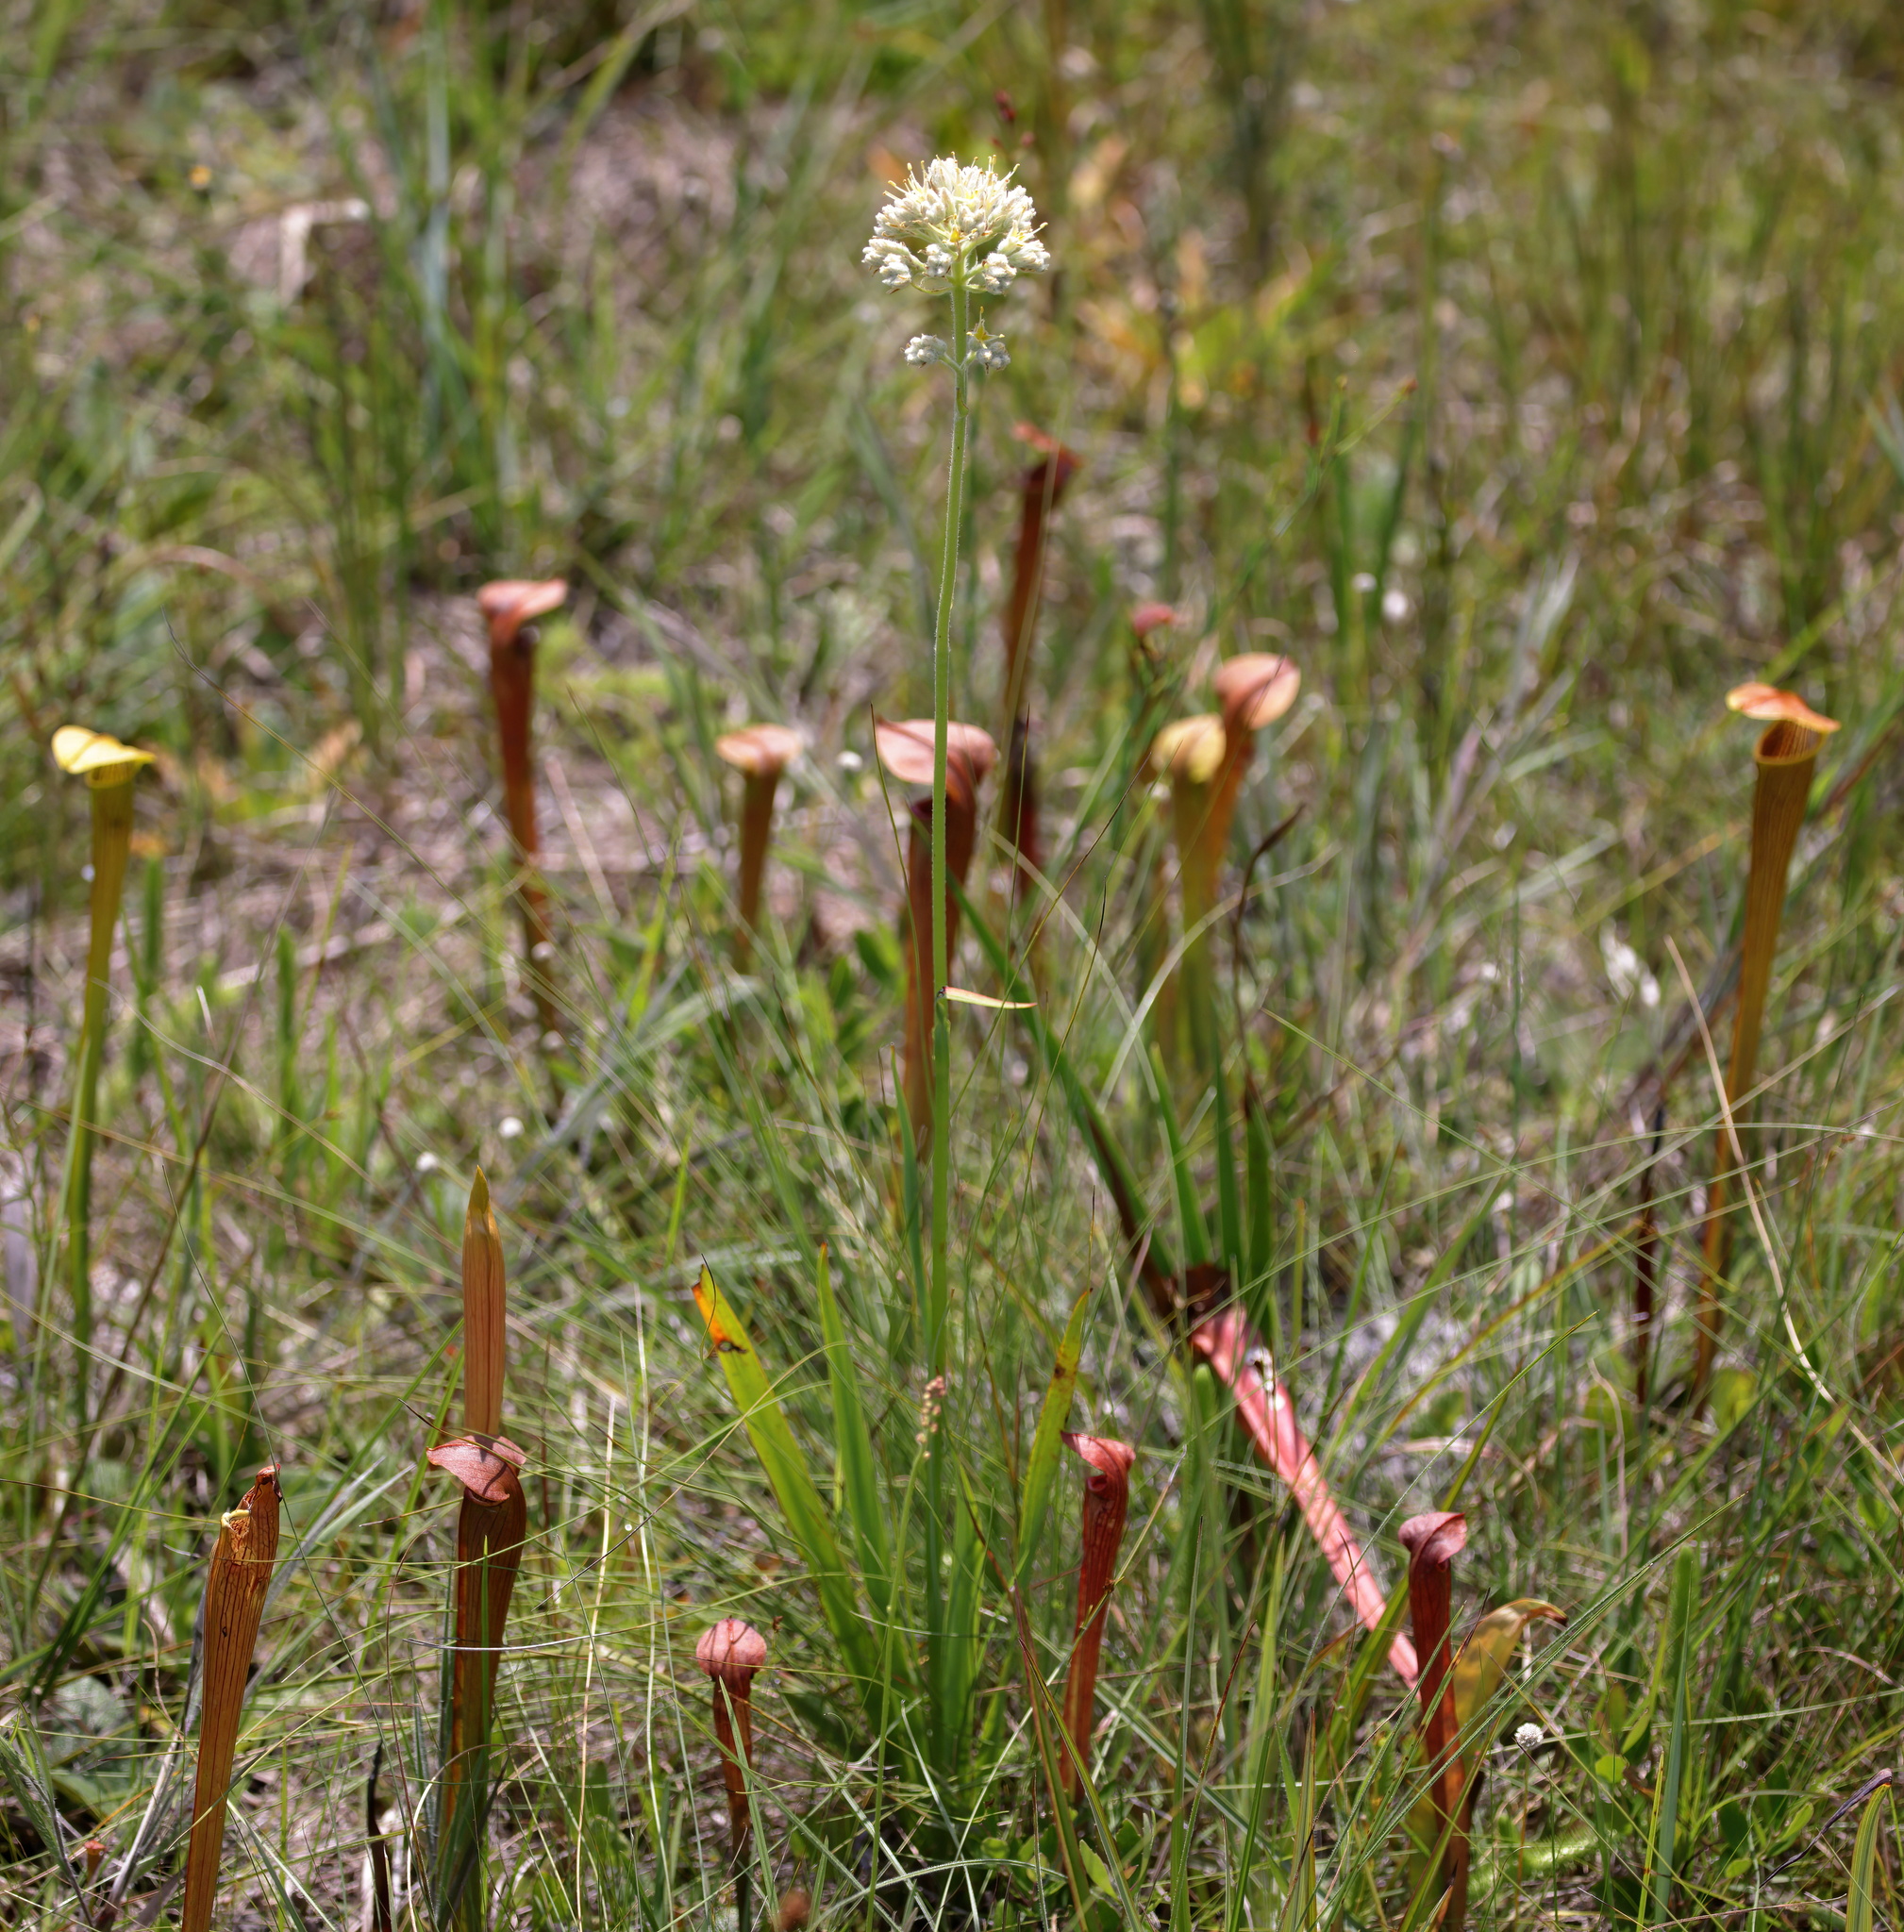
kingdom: Plantae
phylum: Tracheophyta
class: Liliopsida
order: Commelinales
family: Haemodoraceae
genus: Lachnanthes
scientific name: Lachnanthes caroliana
